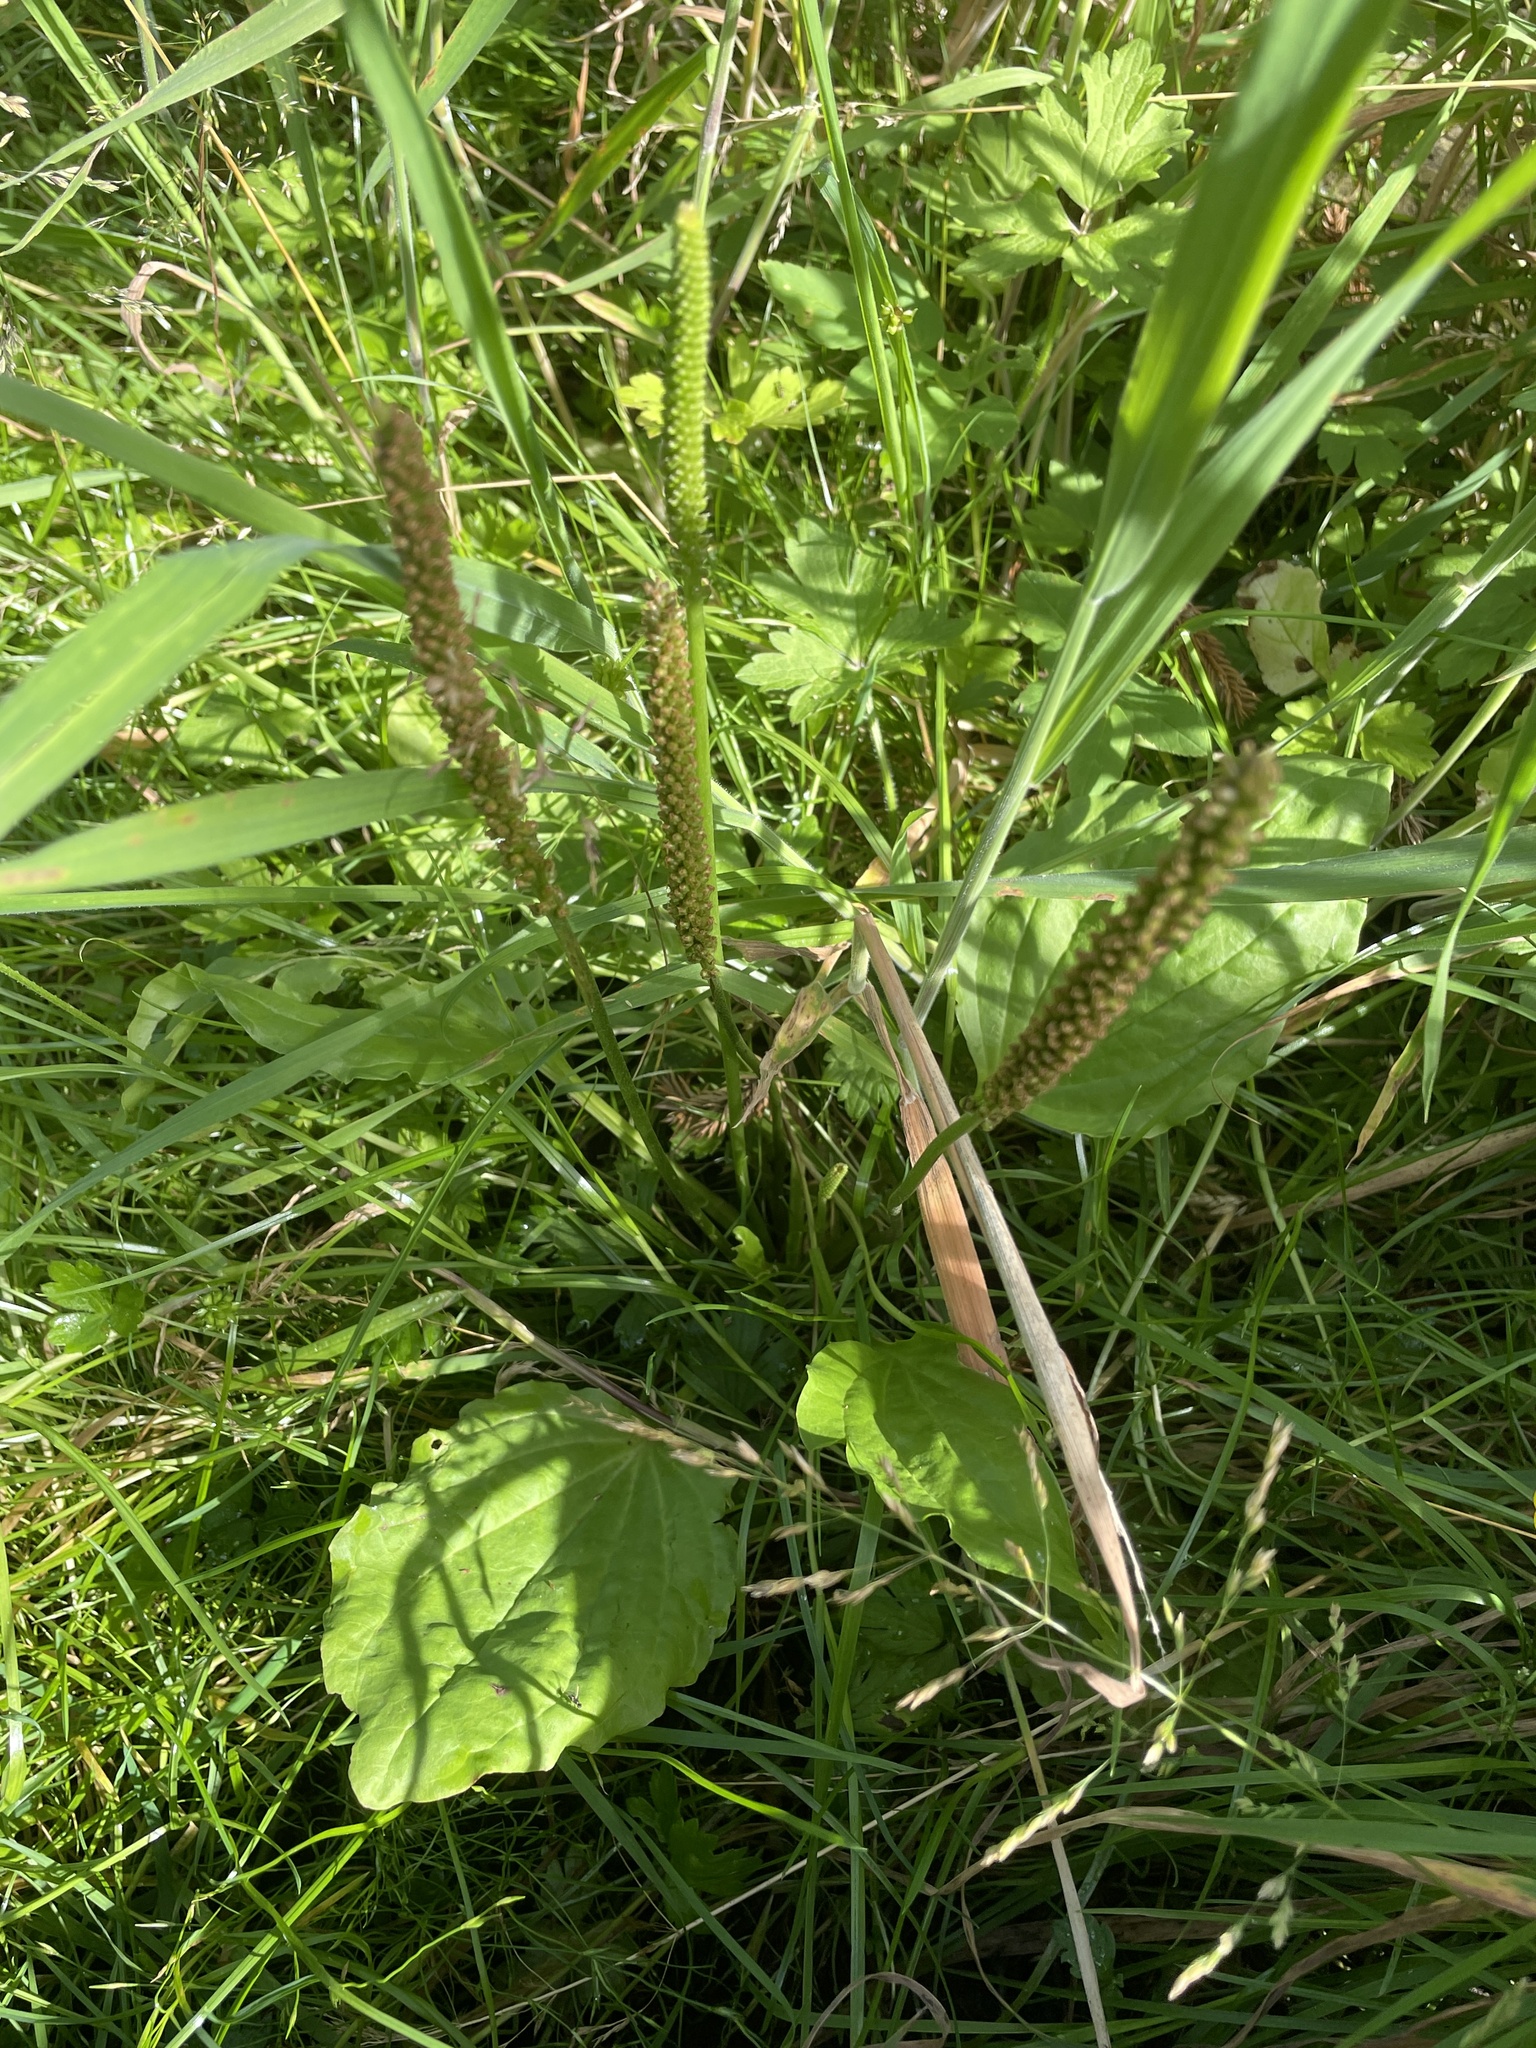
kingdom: Plantae
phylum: Tracheophyta
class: Magnoliopsida
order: Lamiales
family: Plantaginaceae
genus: Plantago
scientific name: Plantago major
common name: Common plantain
